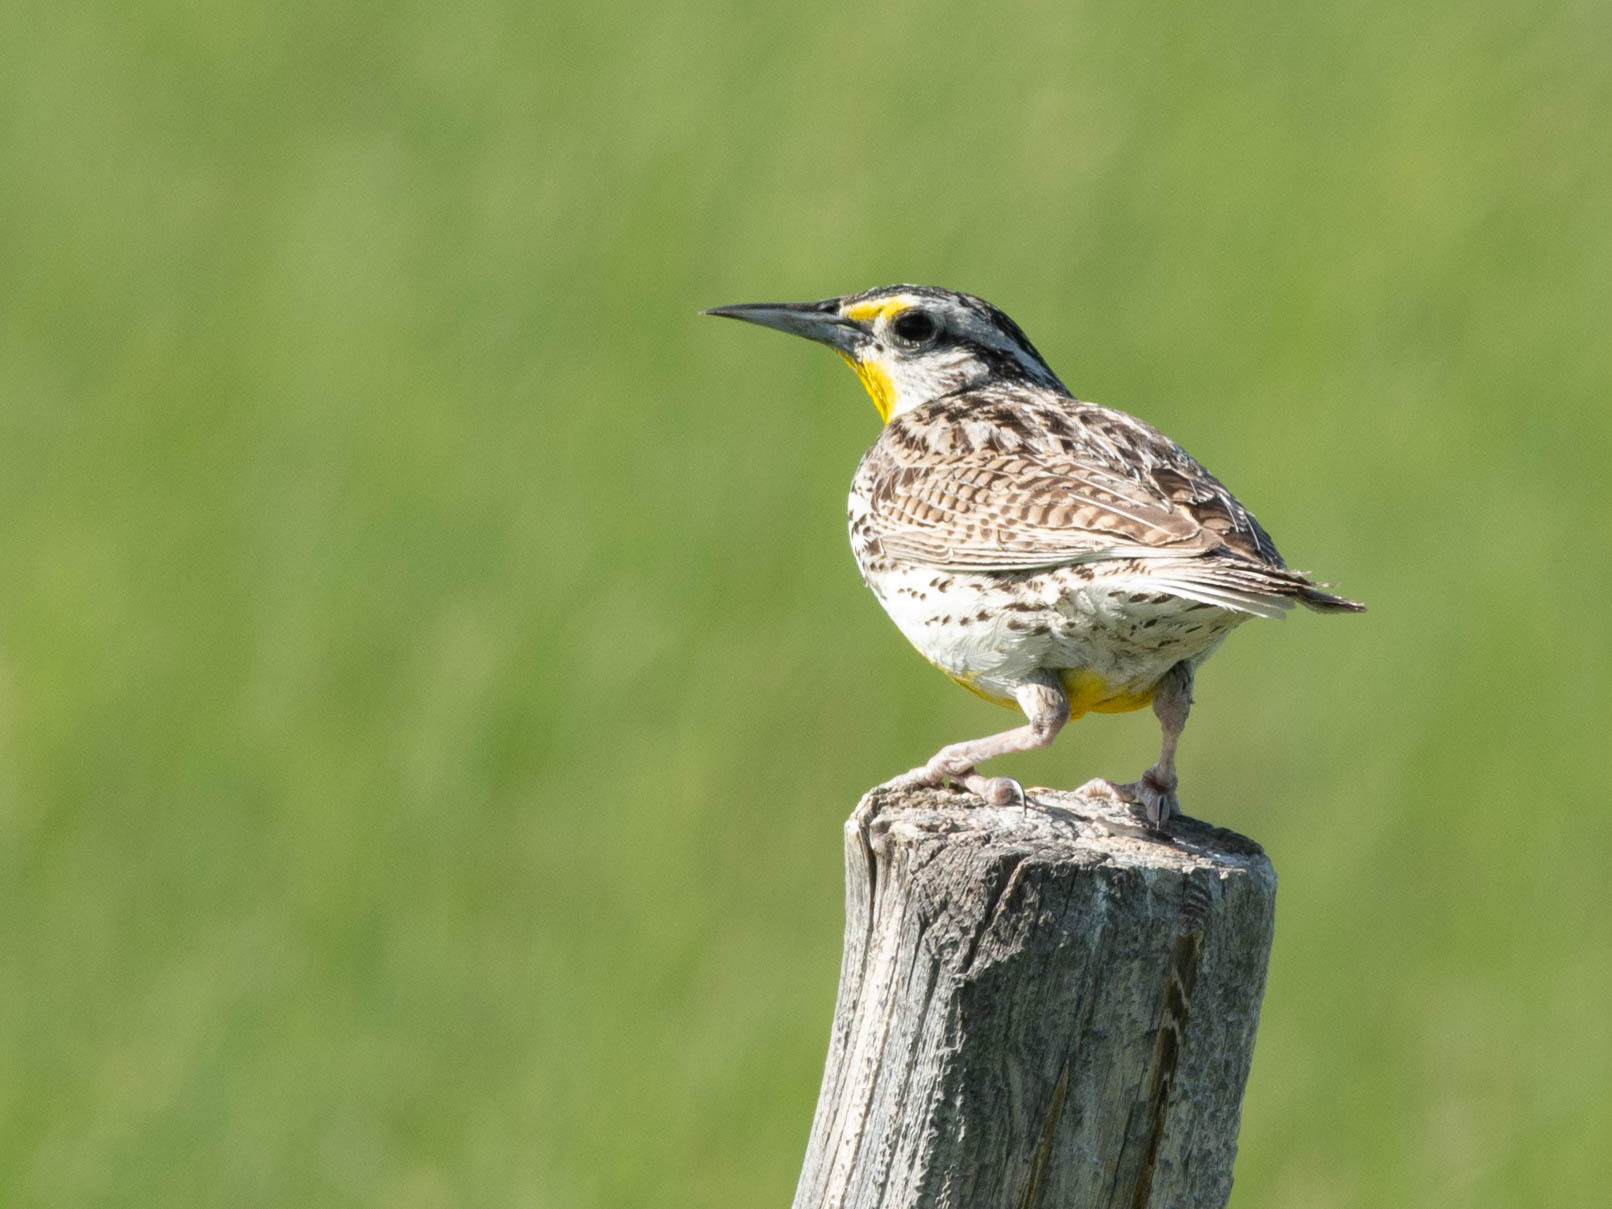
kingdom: Animalia
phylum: Chordata
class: Aves
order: Passeriformes
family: Icteridae
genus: Sturnella
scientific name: Sturnella neglecta
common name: Western meadowlark
